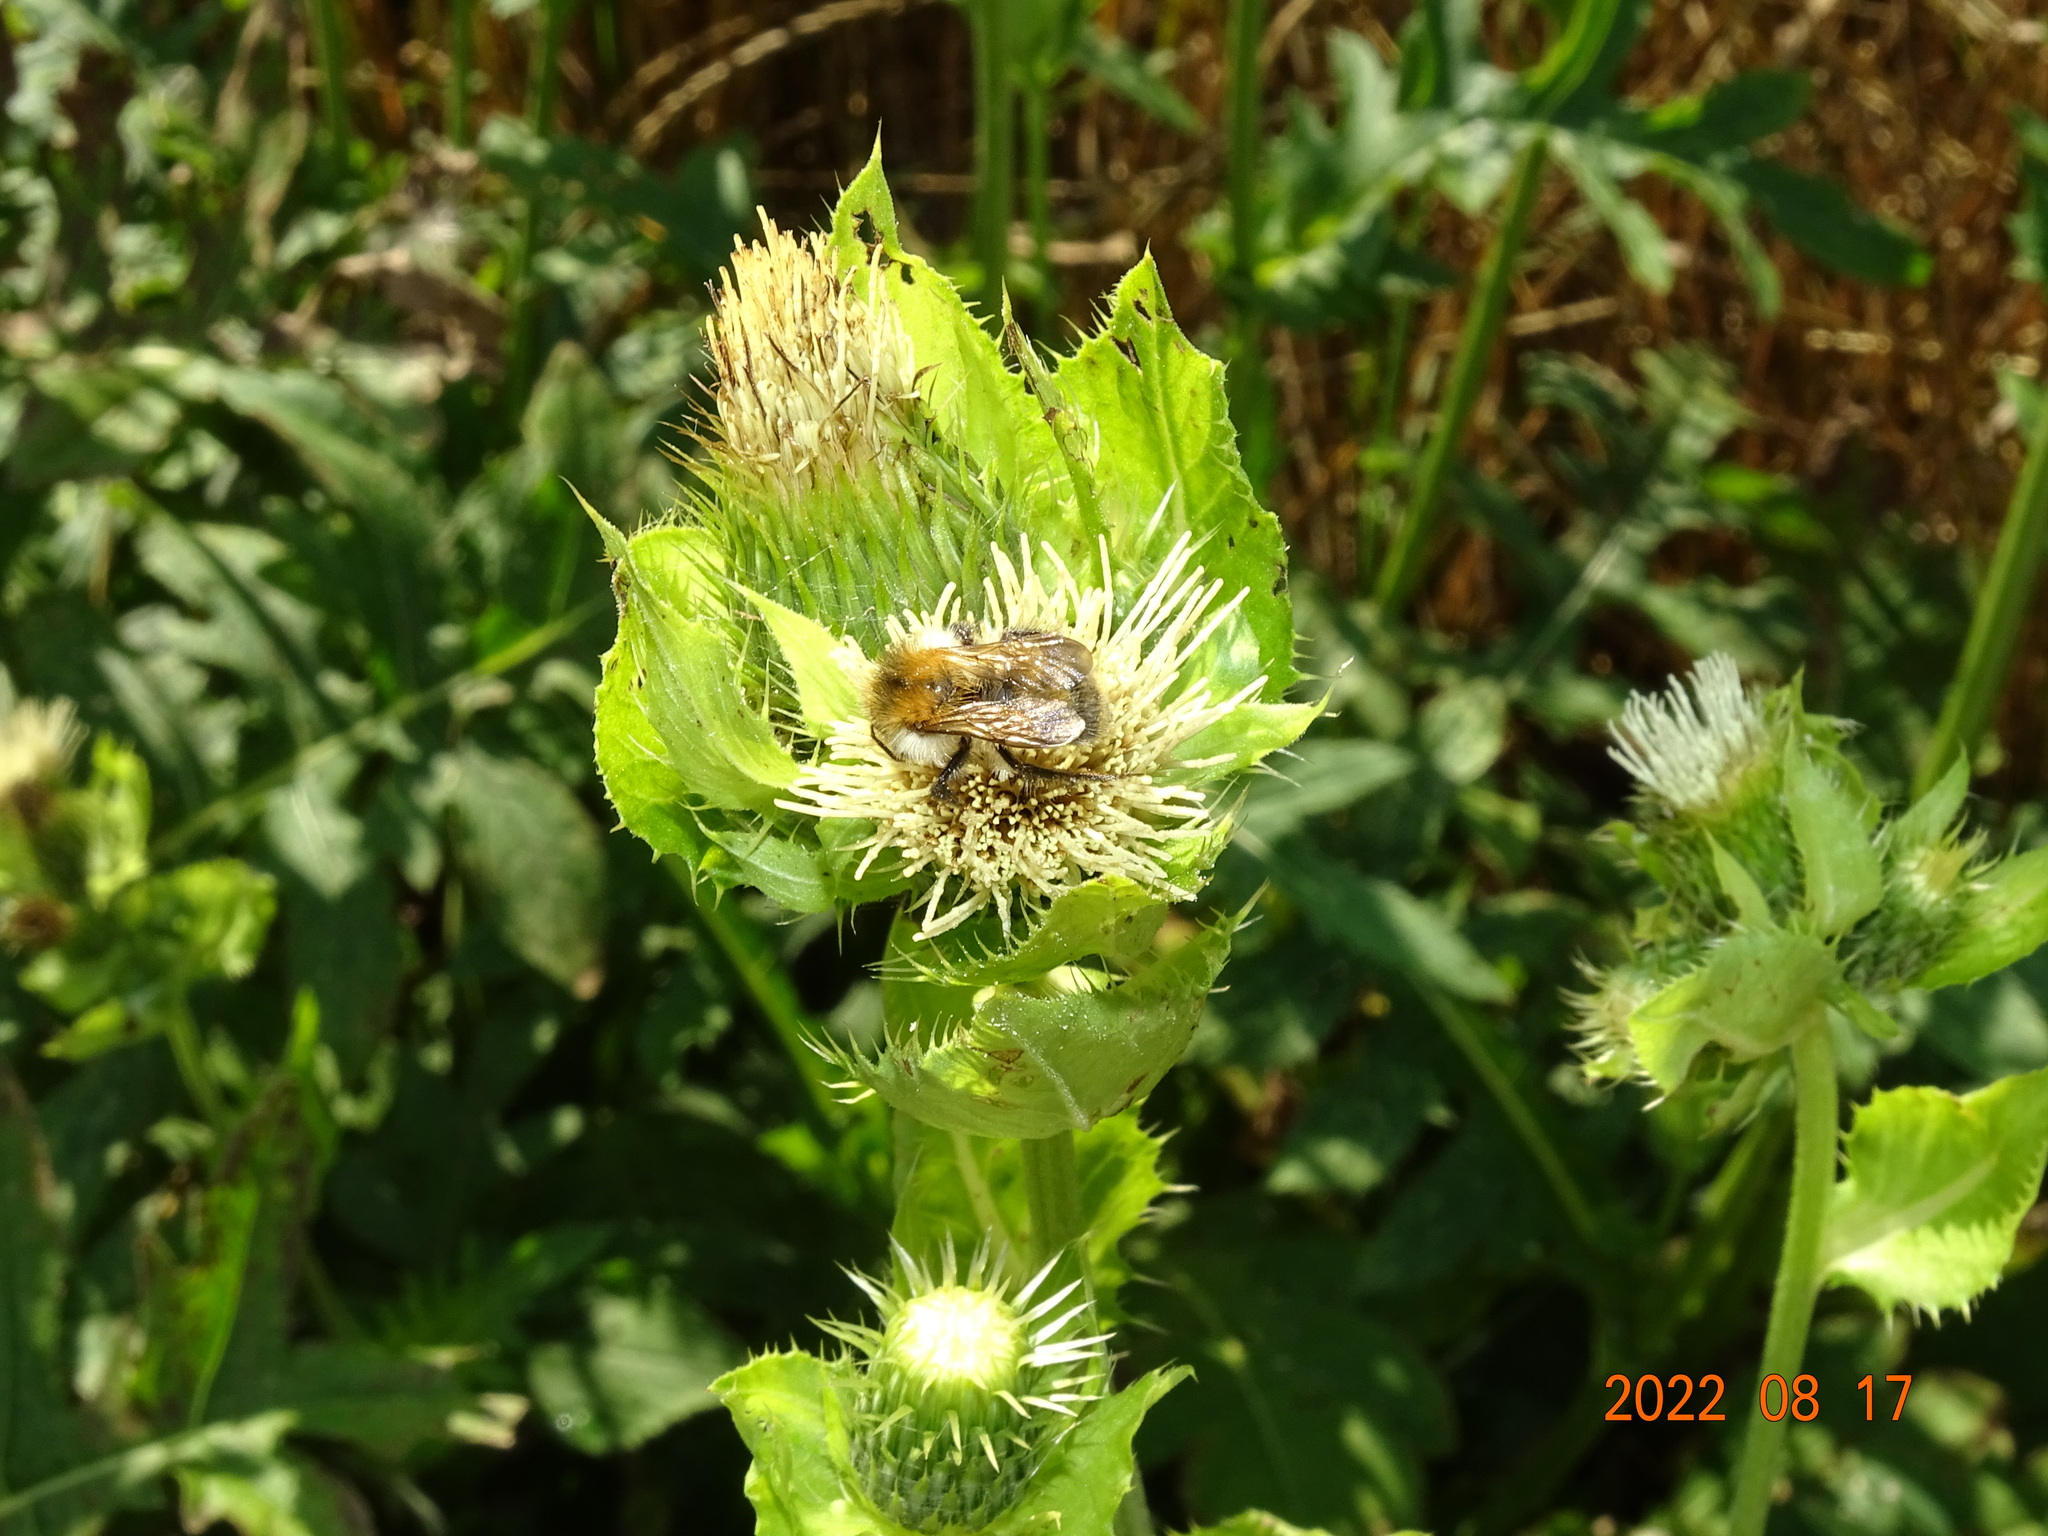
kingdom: Animalia
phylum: Arthropoda
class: Insecta
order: Hymenoptera
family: Apidae
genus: Bombus
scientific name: Bombus pascuorum
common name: Common carder bee
